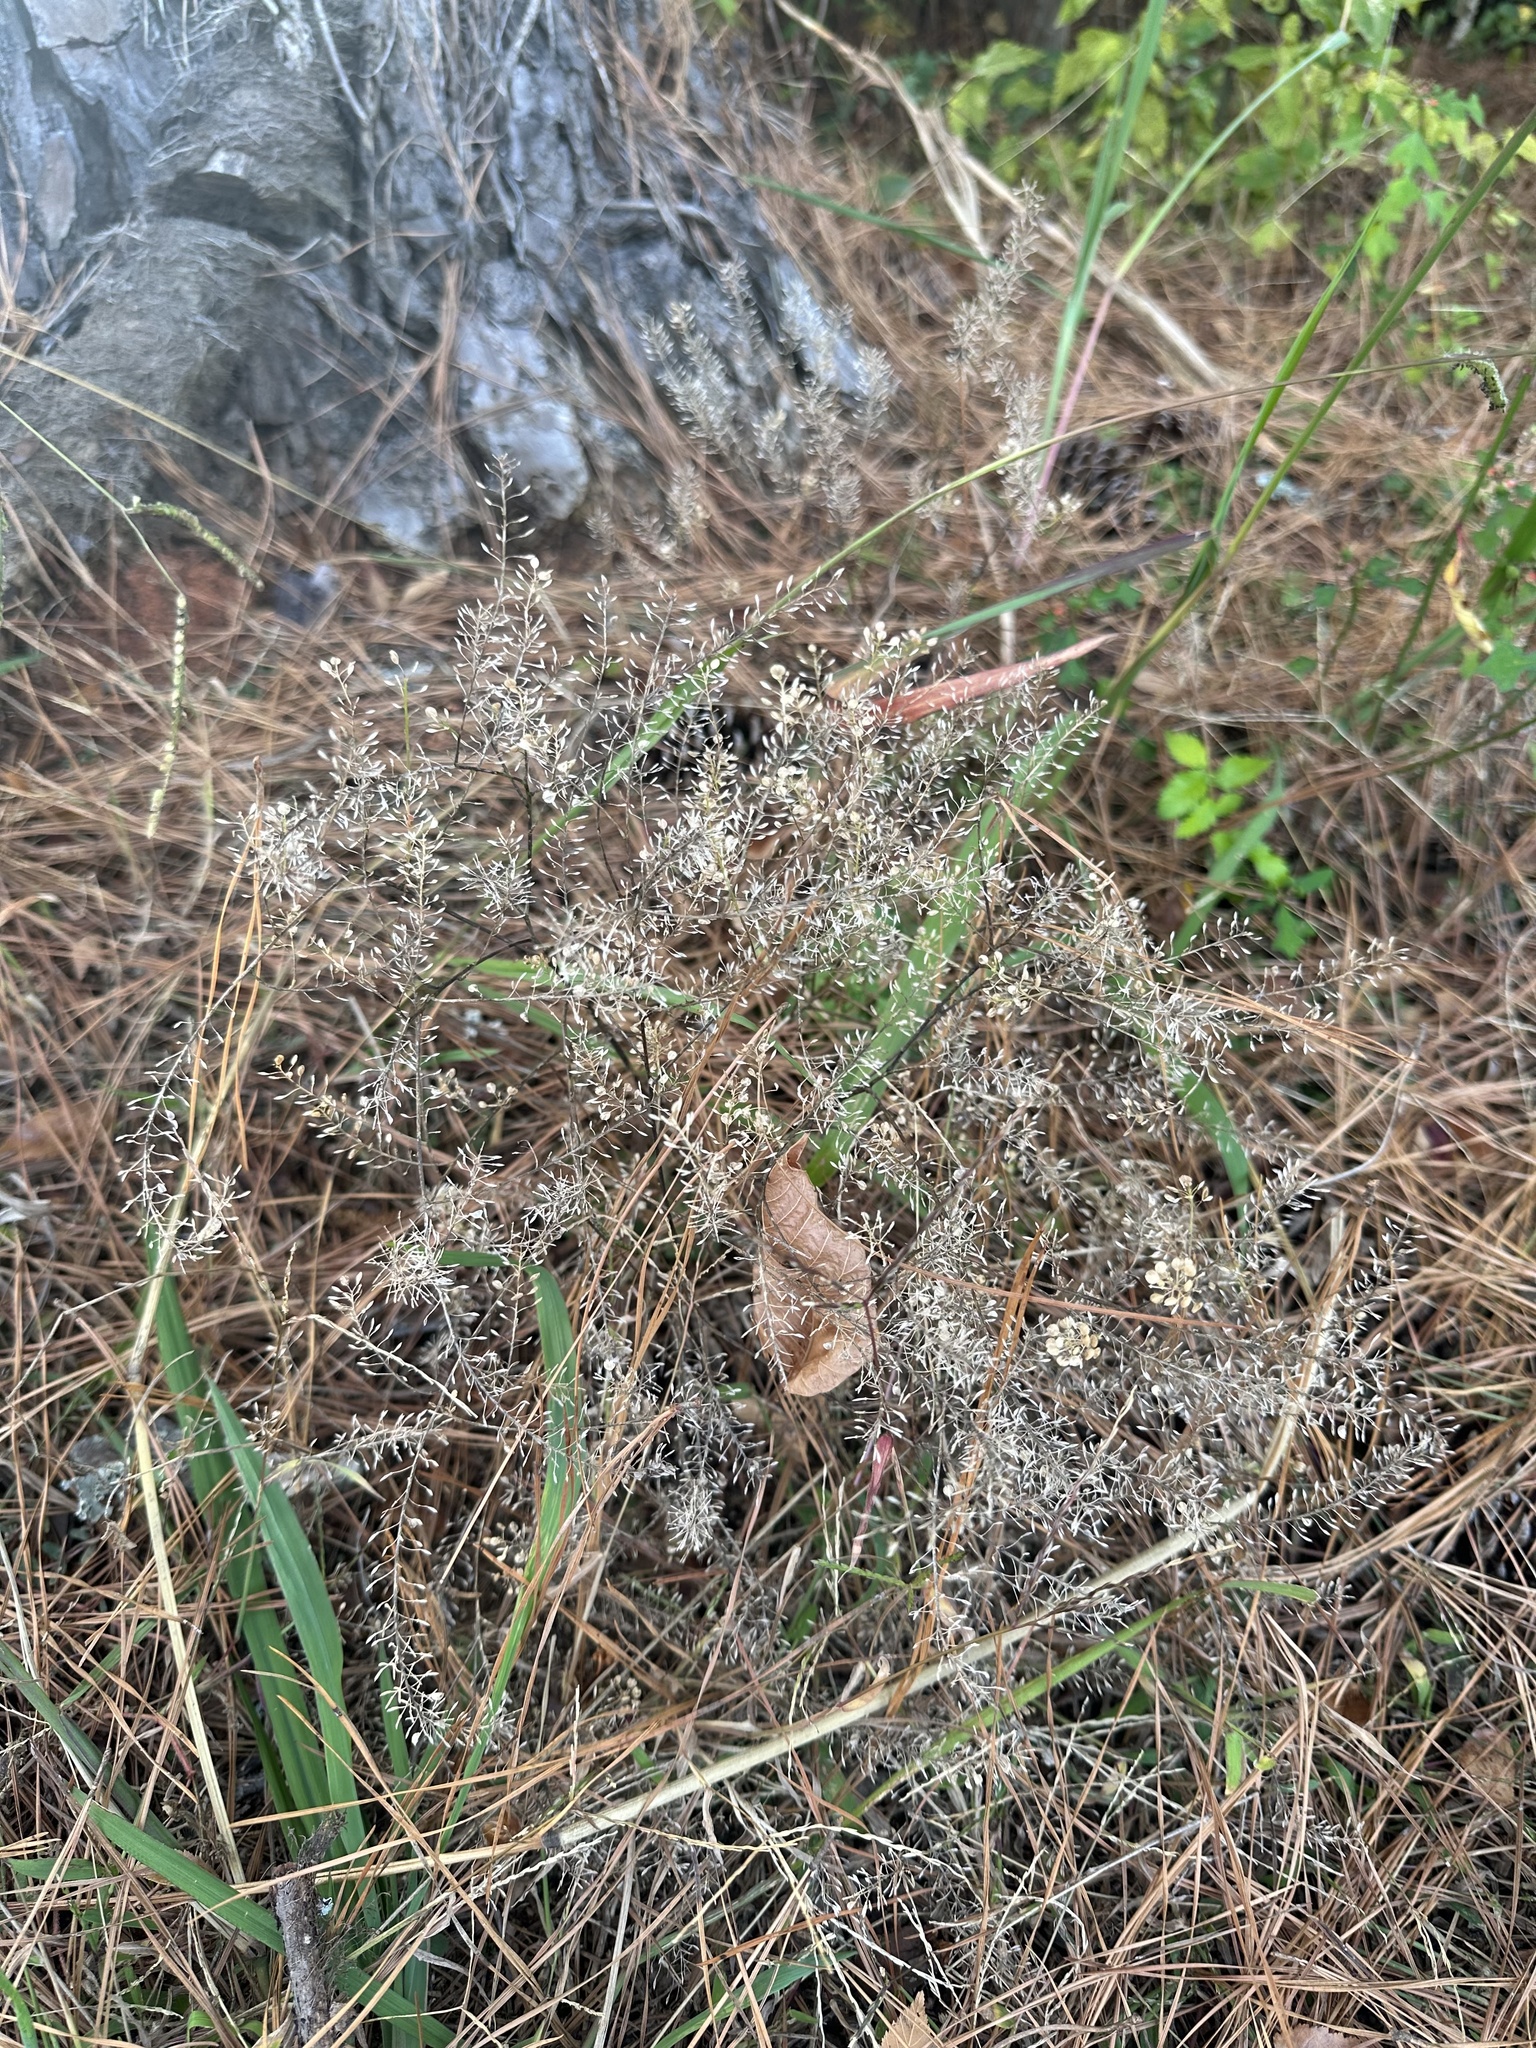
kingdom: Plantae
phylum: Tracheophyta
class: Magnoliopsida
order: Brassicales
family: Brassicaceae
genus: Lepidium
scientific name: Lepidium virginicum
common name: Least pepperwort
